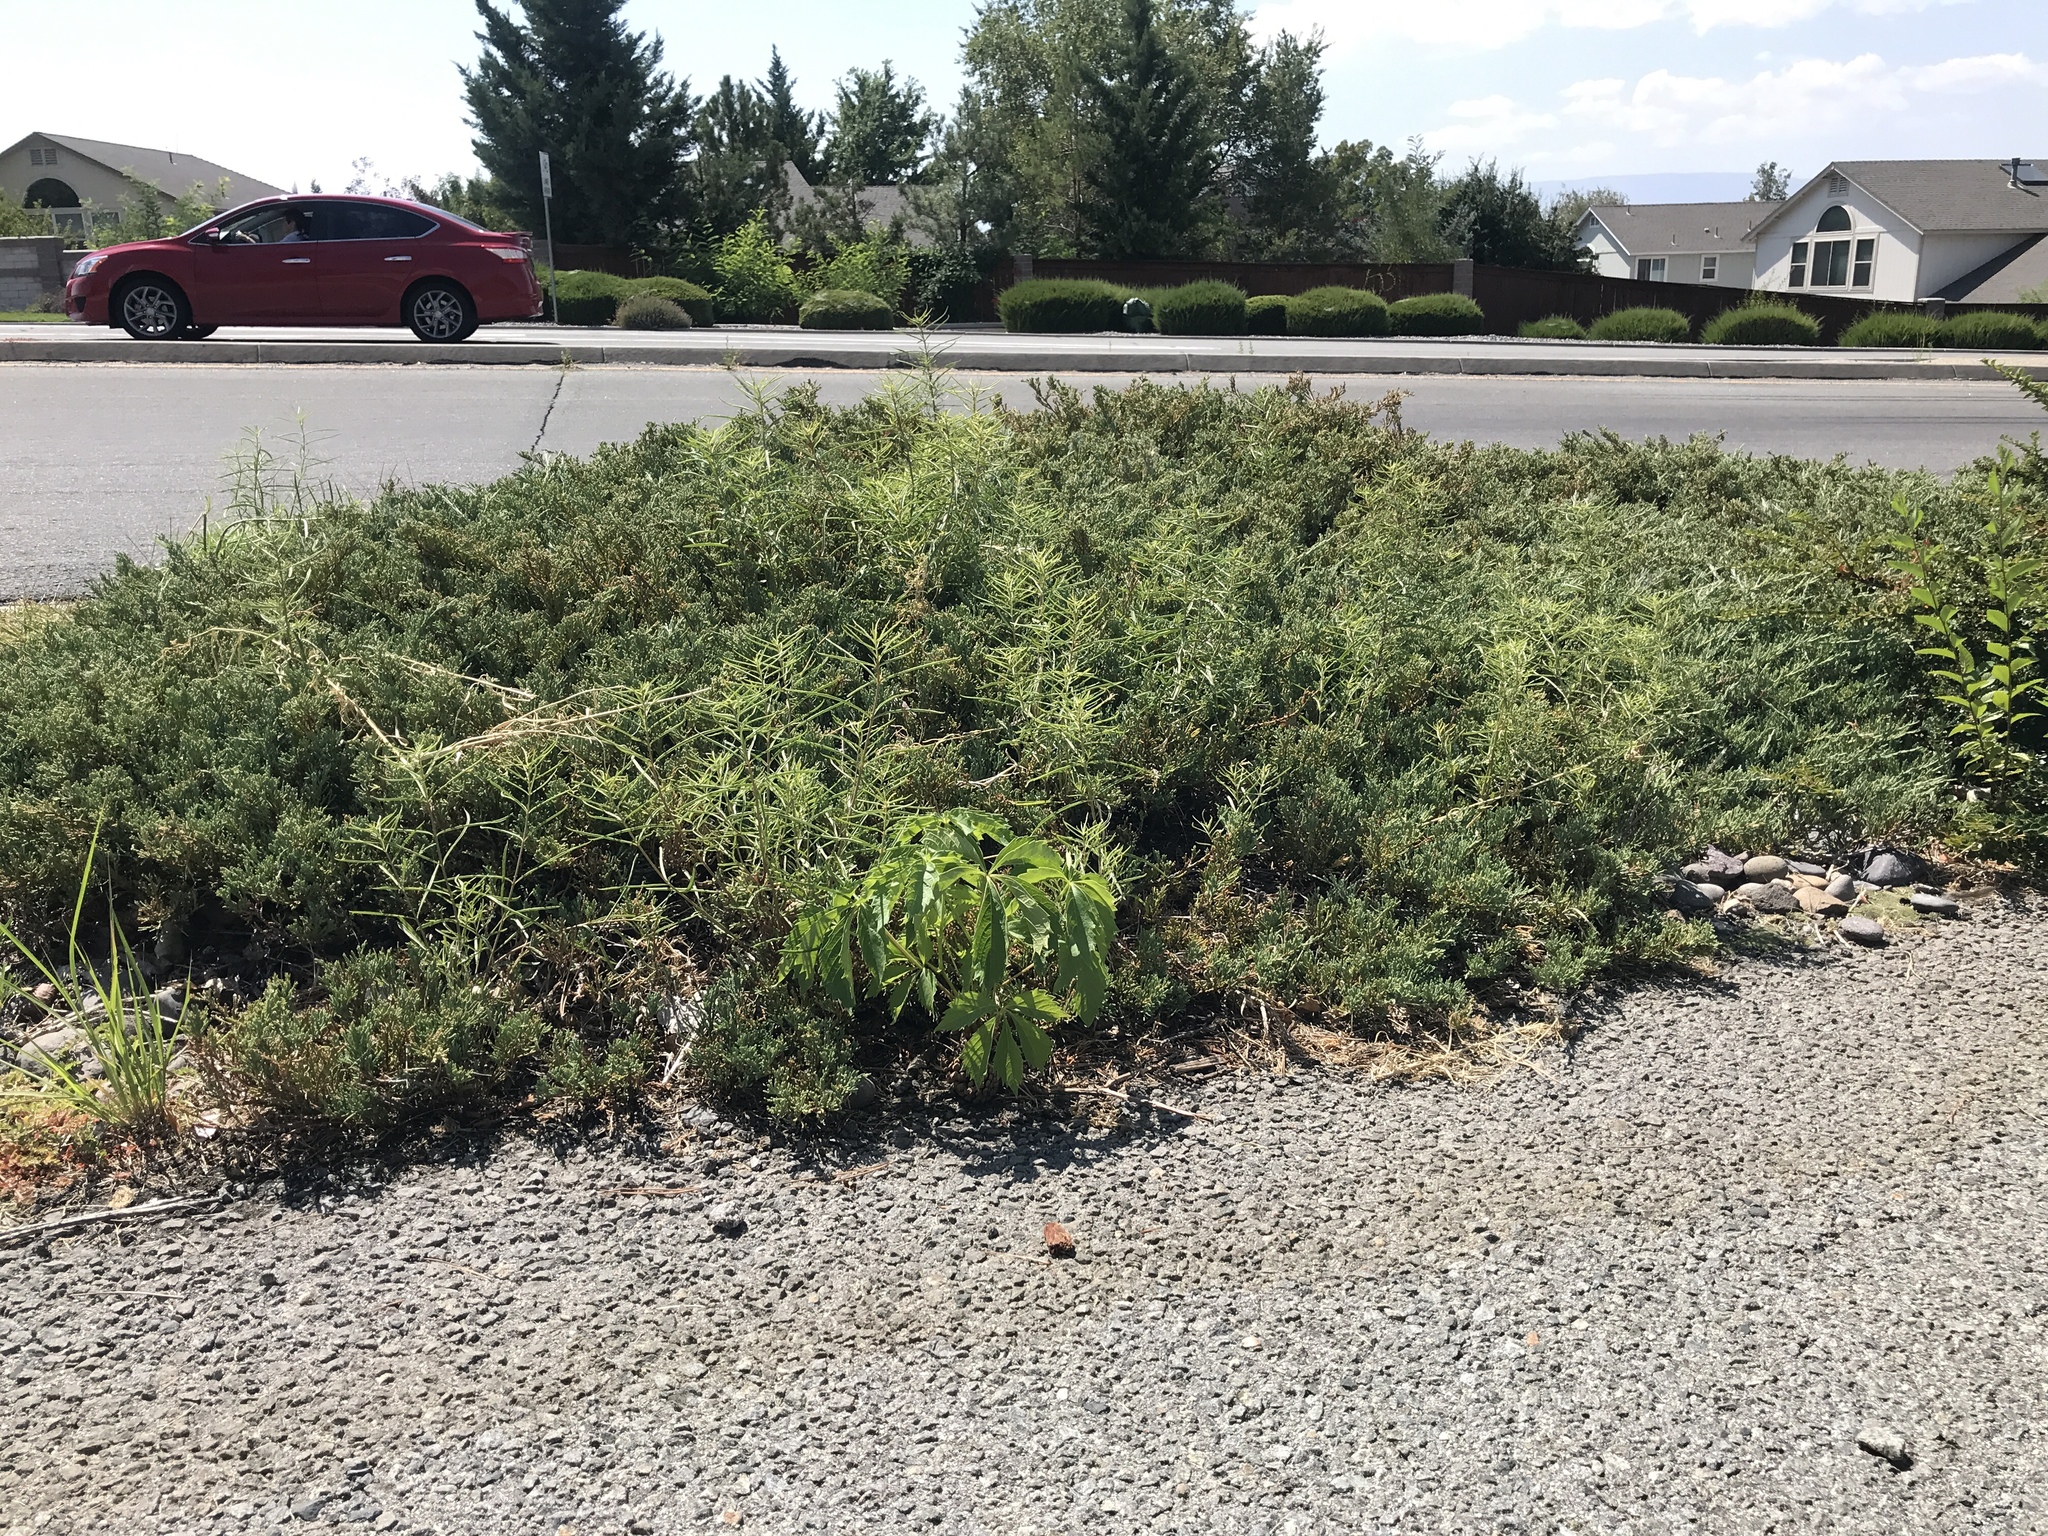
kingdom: Plantae
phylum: Tracheophyta
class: Magnoliopsida
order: Gentianales
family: Apocynaceae
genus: Asclepias
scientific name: Asclepias fascicularis
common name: Mexican milkweed
